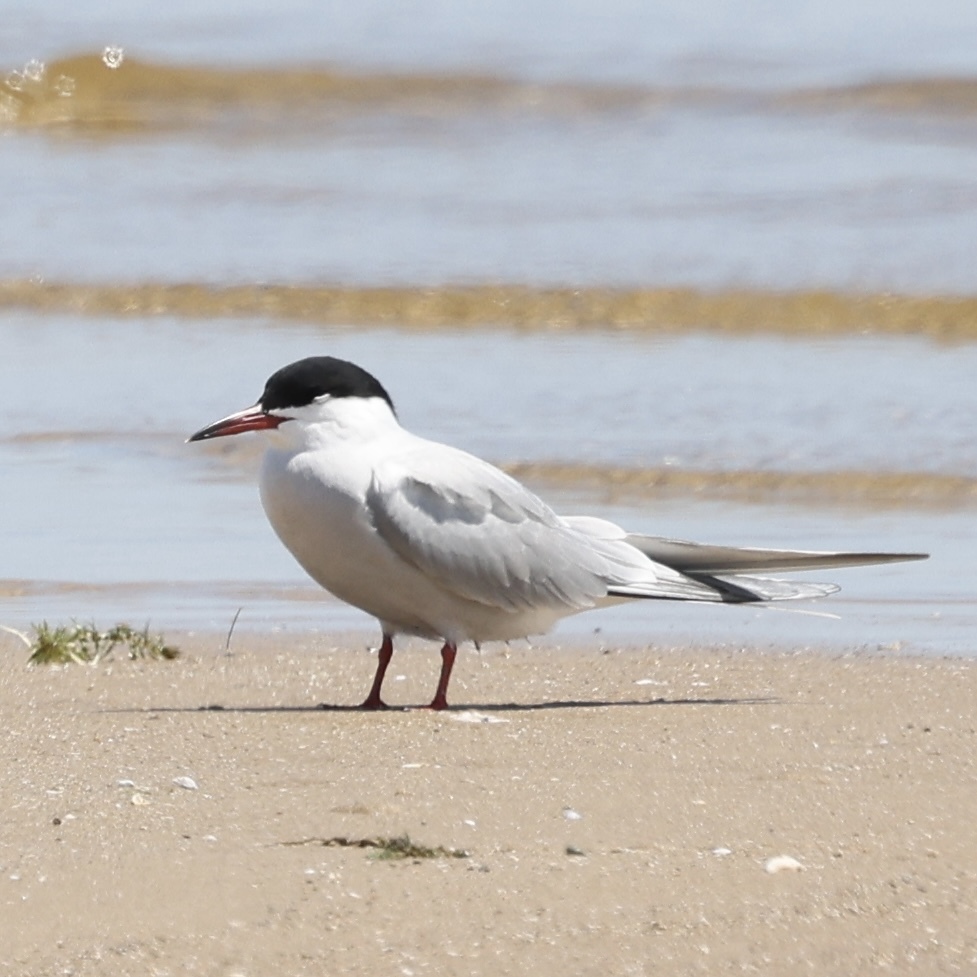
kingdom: Animalia
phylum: Chordata
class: Aves
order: Charadriiformes
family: Laridae
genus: Sterna
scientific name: Sterna hirundo
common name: Common tern
